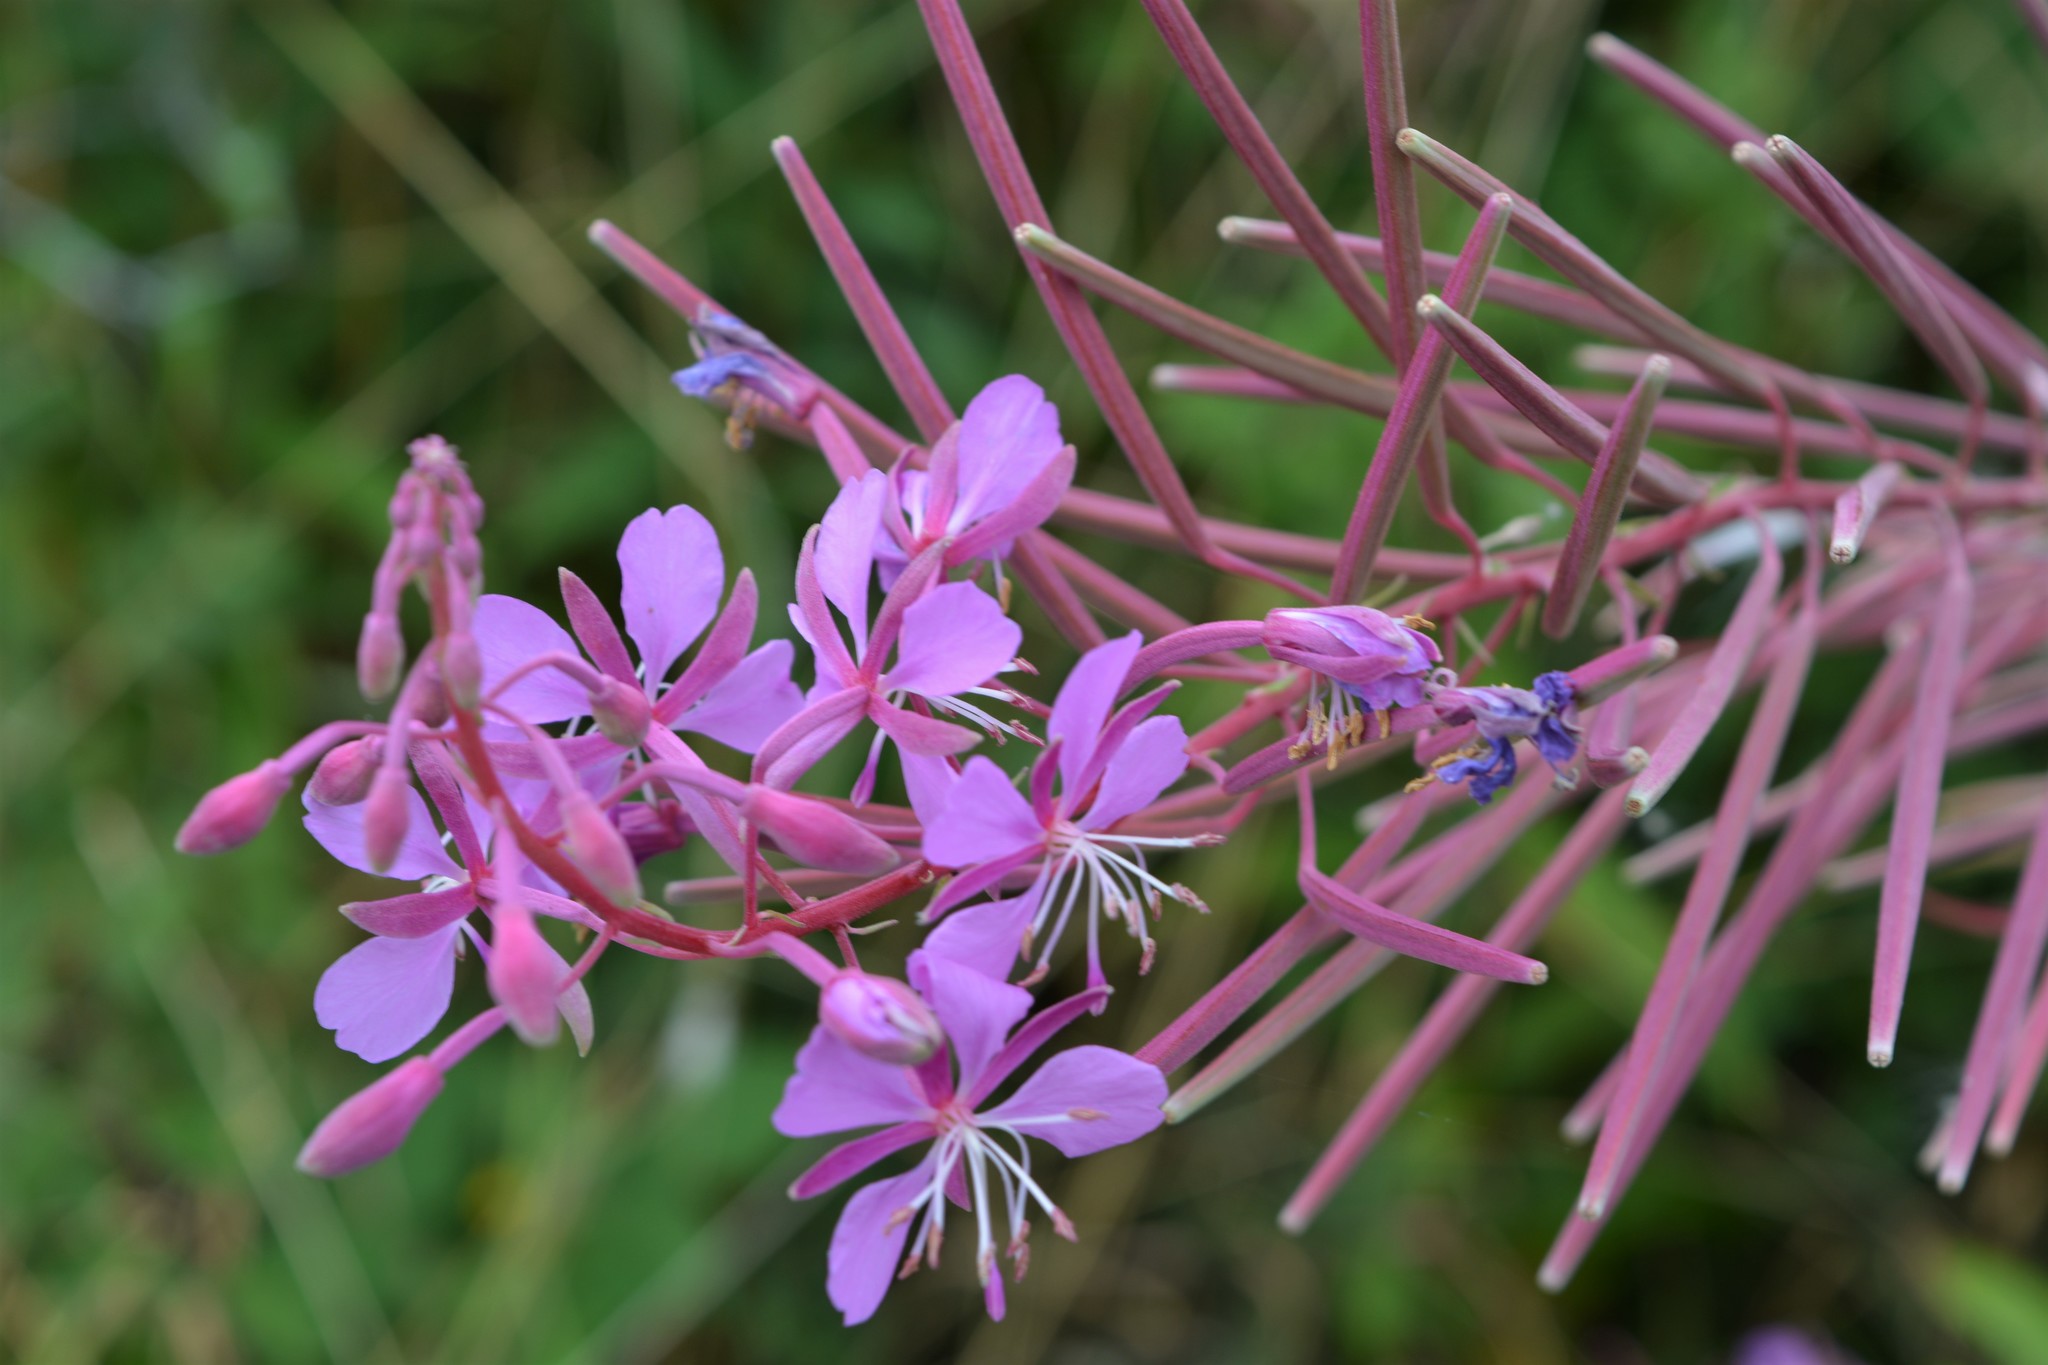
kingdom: Plantae
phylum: Tracheophyta
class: Magnoliopsida
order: Myrtales
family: Onagraceae
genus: Chamaenerion
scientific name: Chamaenerion angustifolium
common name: Fireweed
